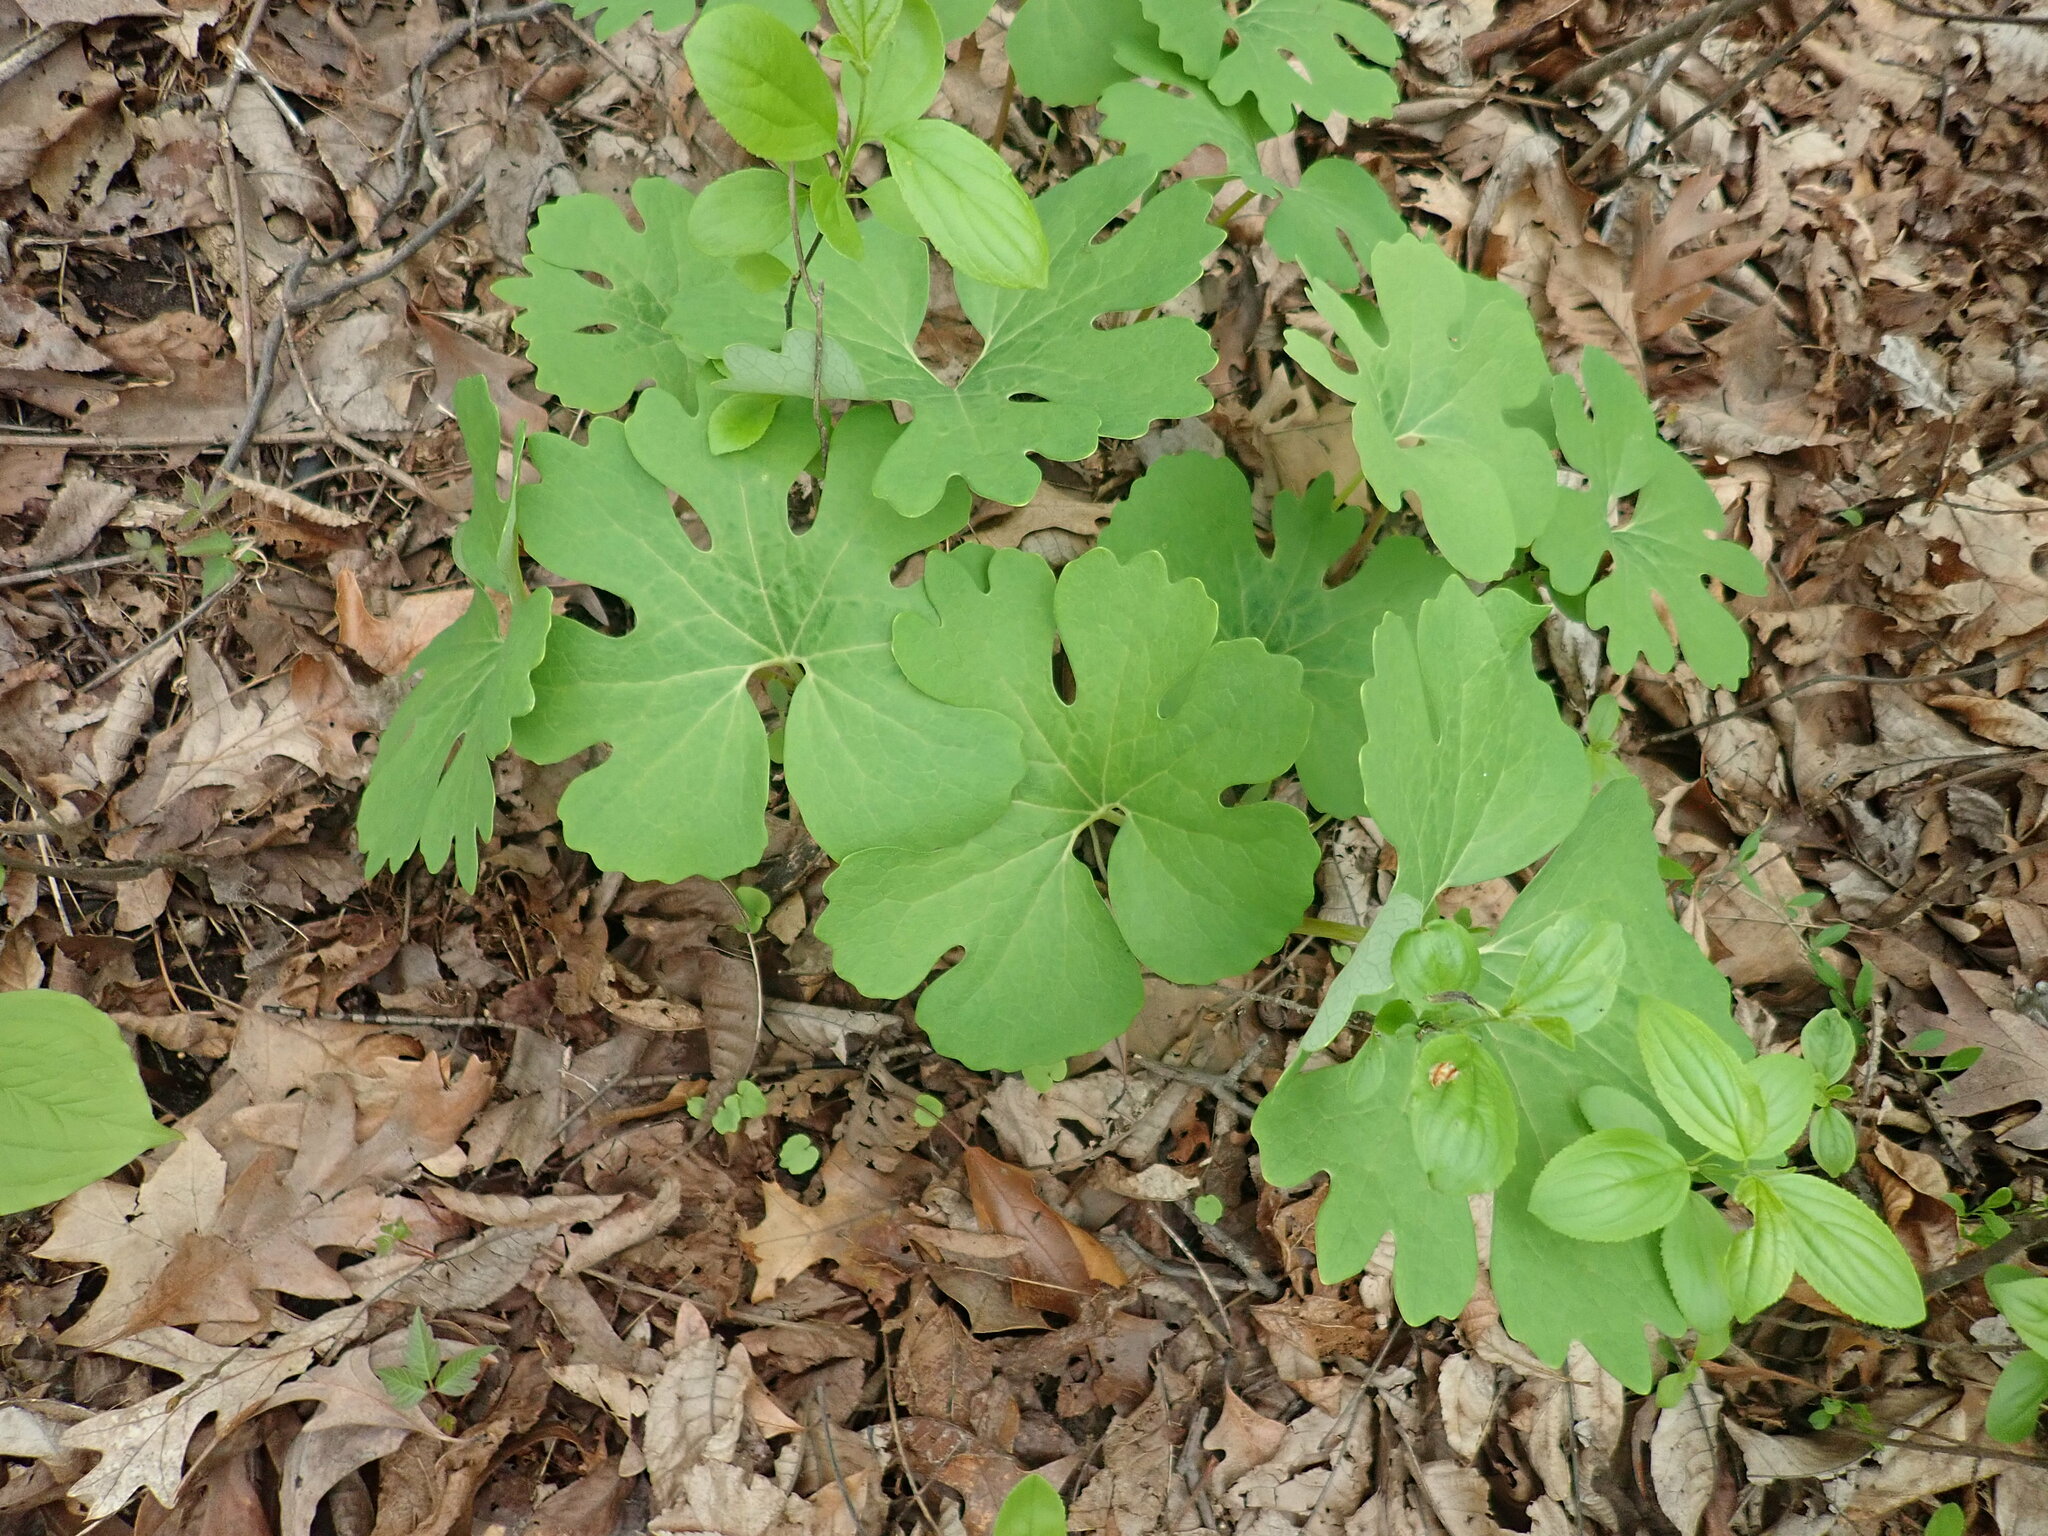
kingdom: Plantae
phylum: Tracheophyta
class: Magnoliopsida
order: Ranunculales
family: Papaveraceae
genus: Sanguinaria
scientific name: Sanguinaria canadensis
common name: Bloodroot
